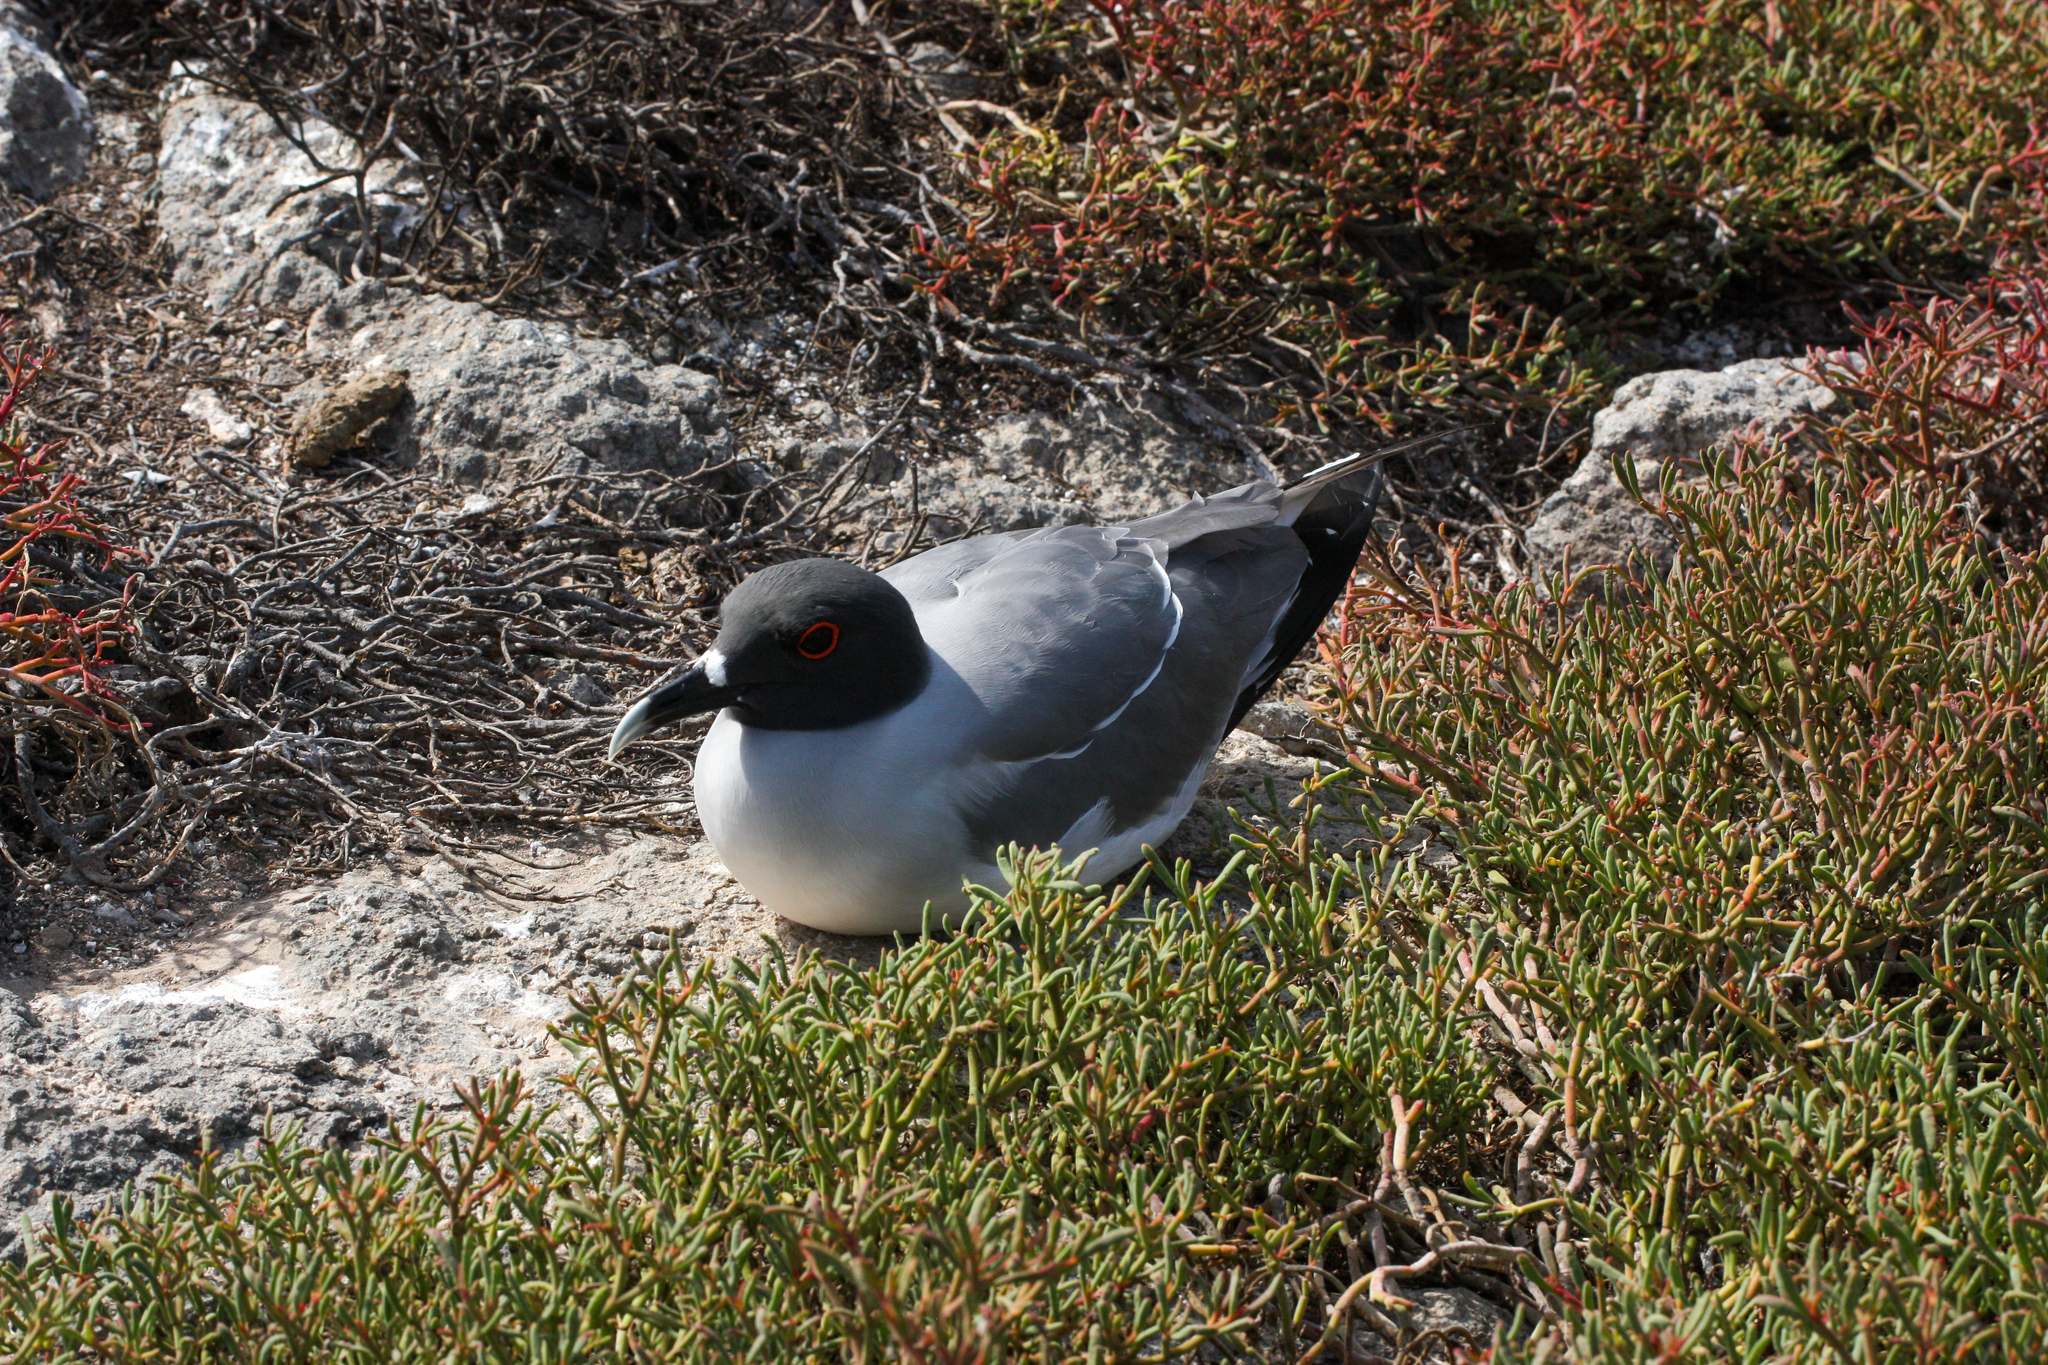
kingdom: Animalia
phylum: Chordata
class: Aves
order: Charadriiformes
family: Laridae
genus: Creagrus
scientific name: Creagrus furcatus
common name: Swallow-tailed gull
